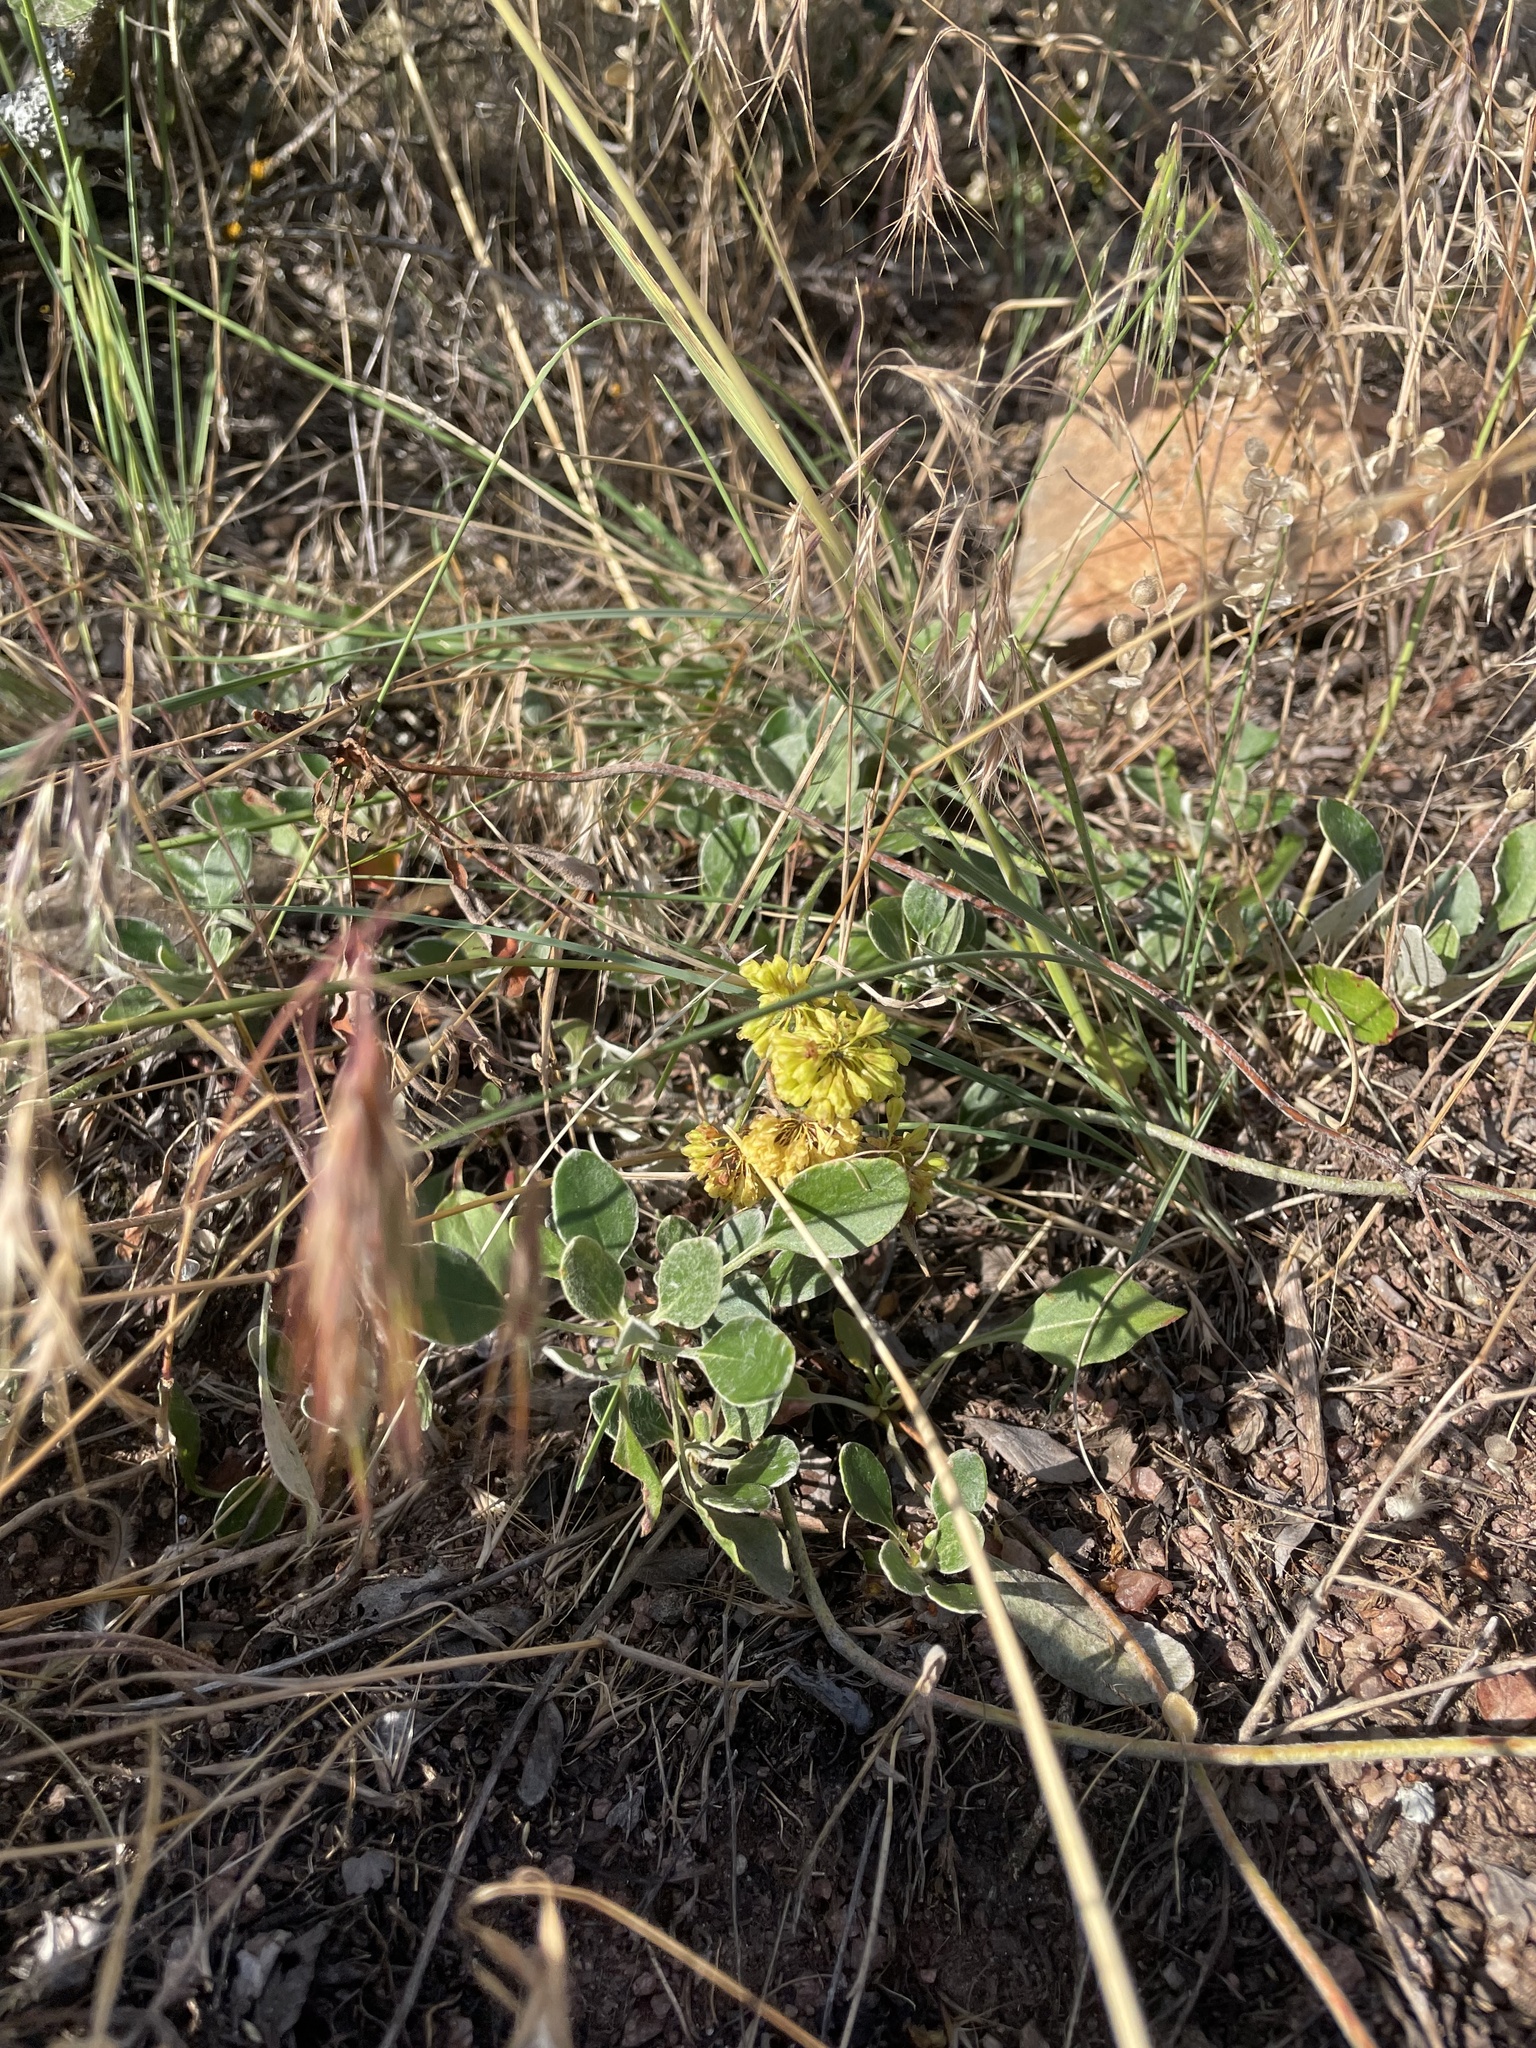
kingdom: Plantae
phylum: Tracheophyta
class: Magnoliopsida
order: Caryophyllales
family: Polygonaceae
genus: Eriogonum
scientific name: Eriogonum umbellatum
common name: Sulfur-buckwheat
